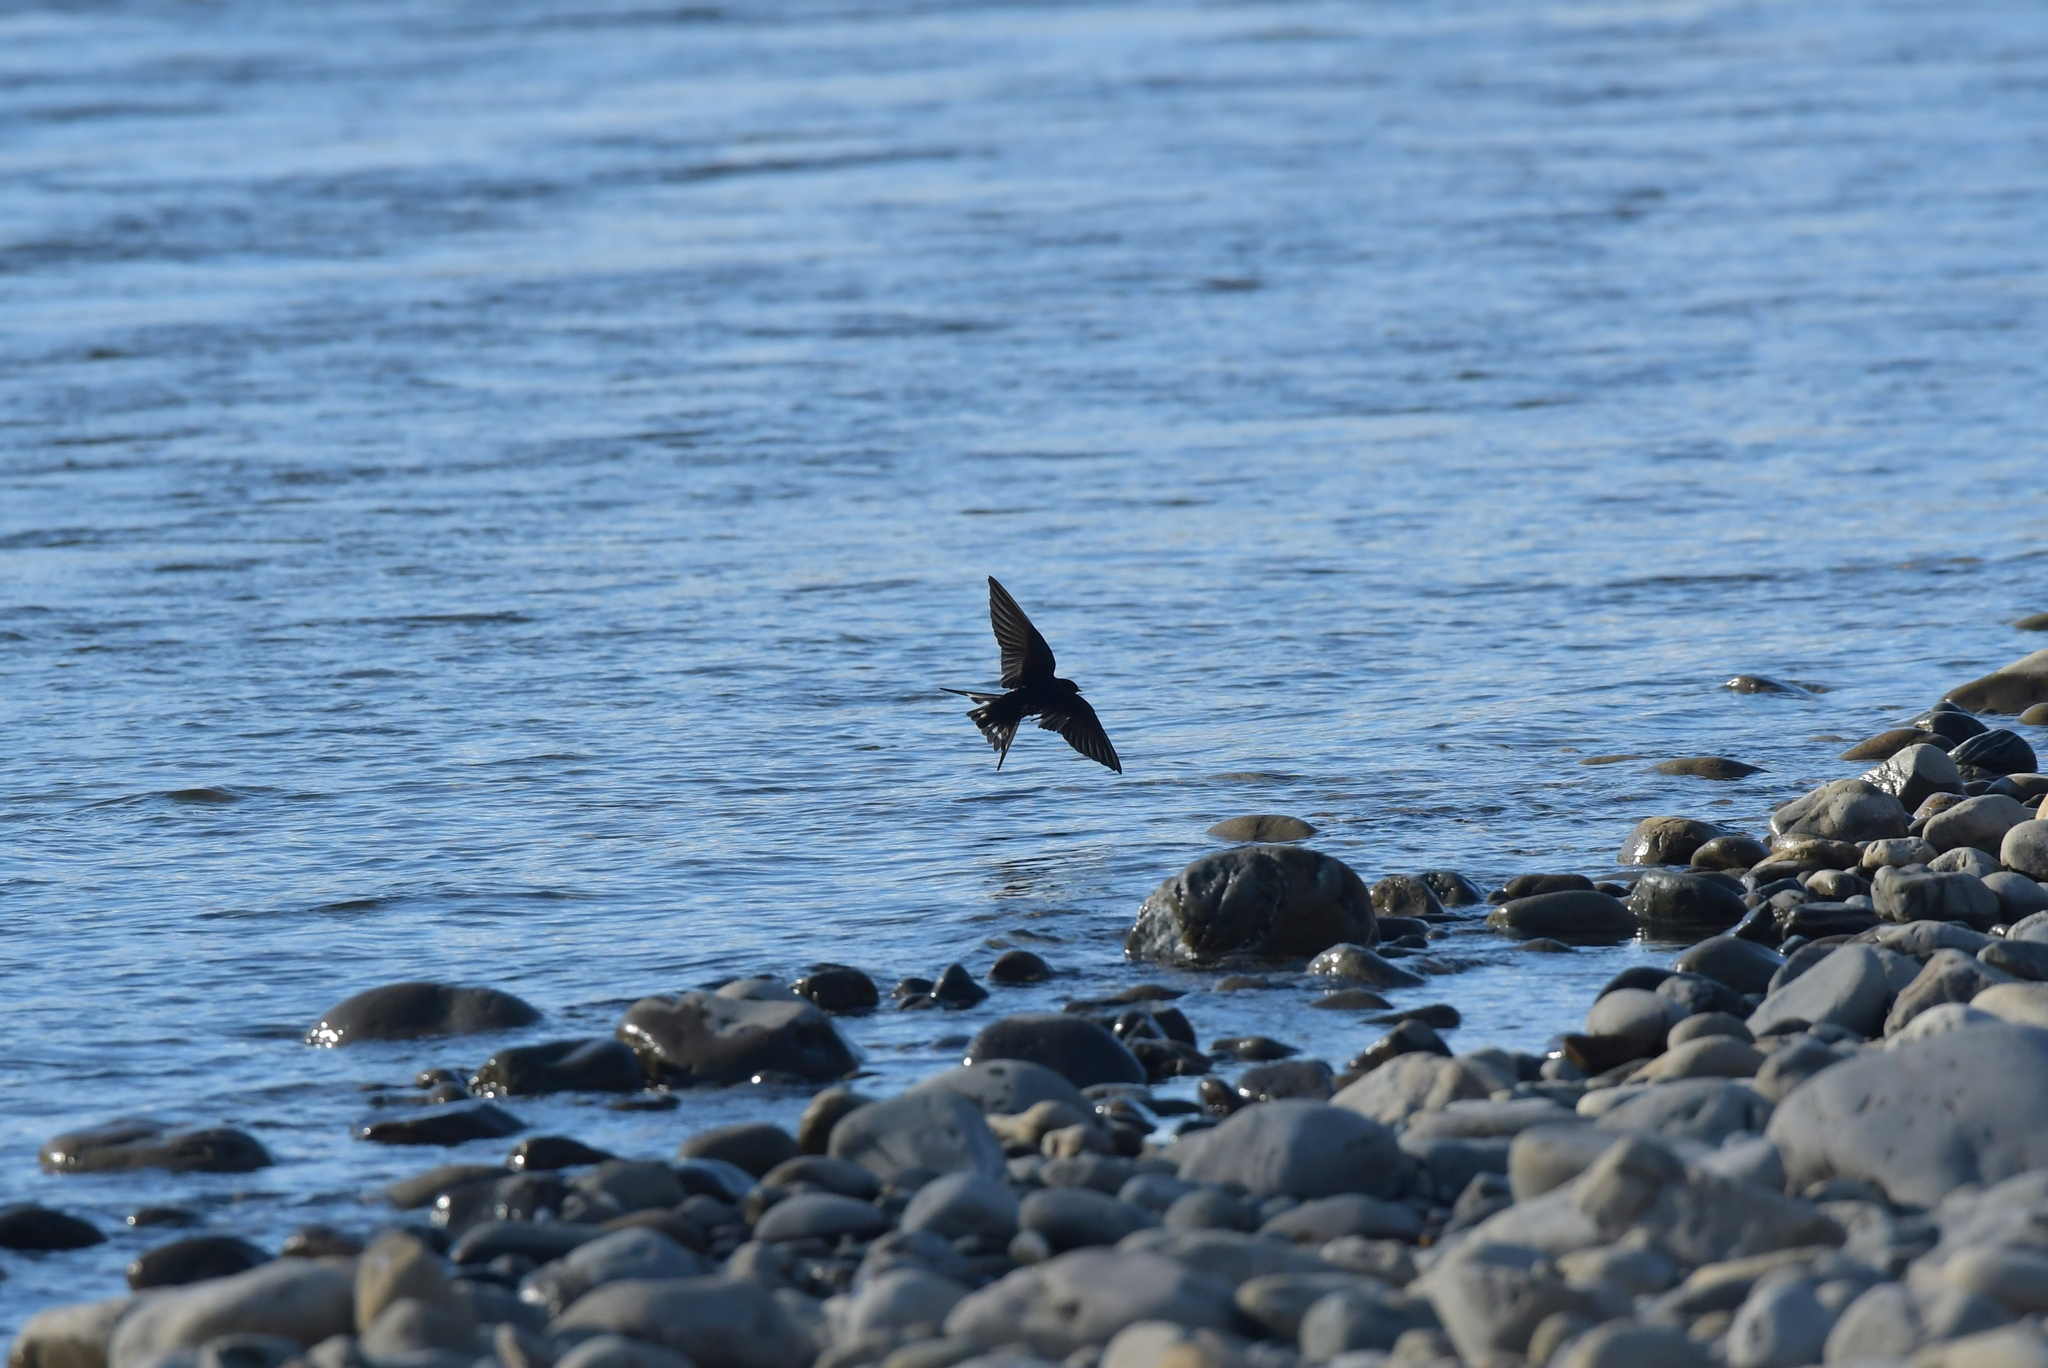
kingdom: Animalia
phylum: Chordata
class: Aves
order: Passeriformes
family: Hirundinidae
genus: Hirundo
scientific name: Hirundo neoxena
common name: Welcome swallow
